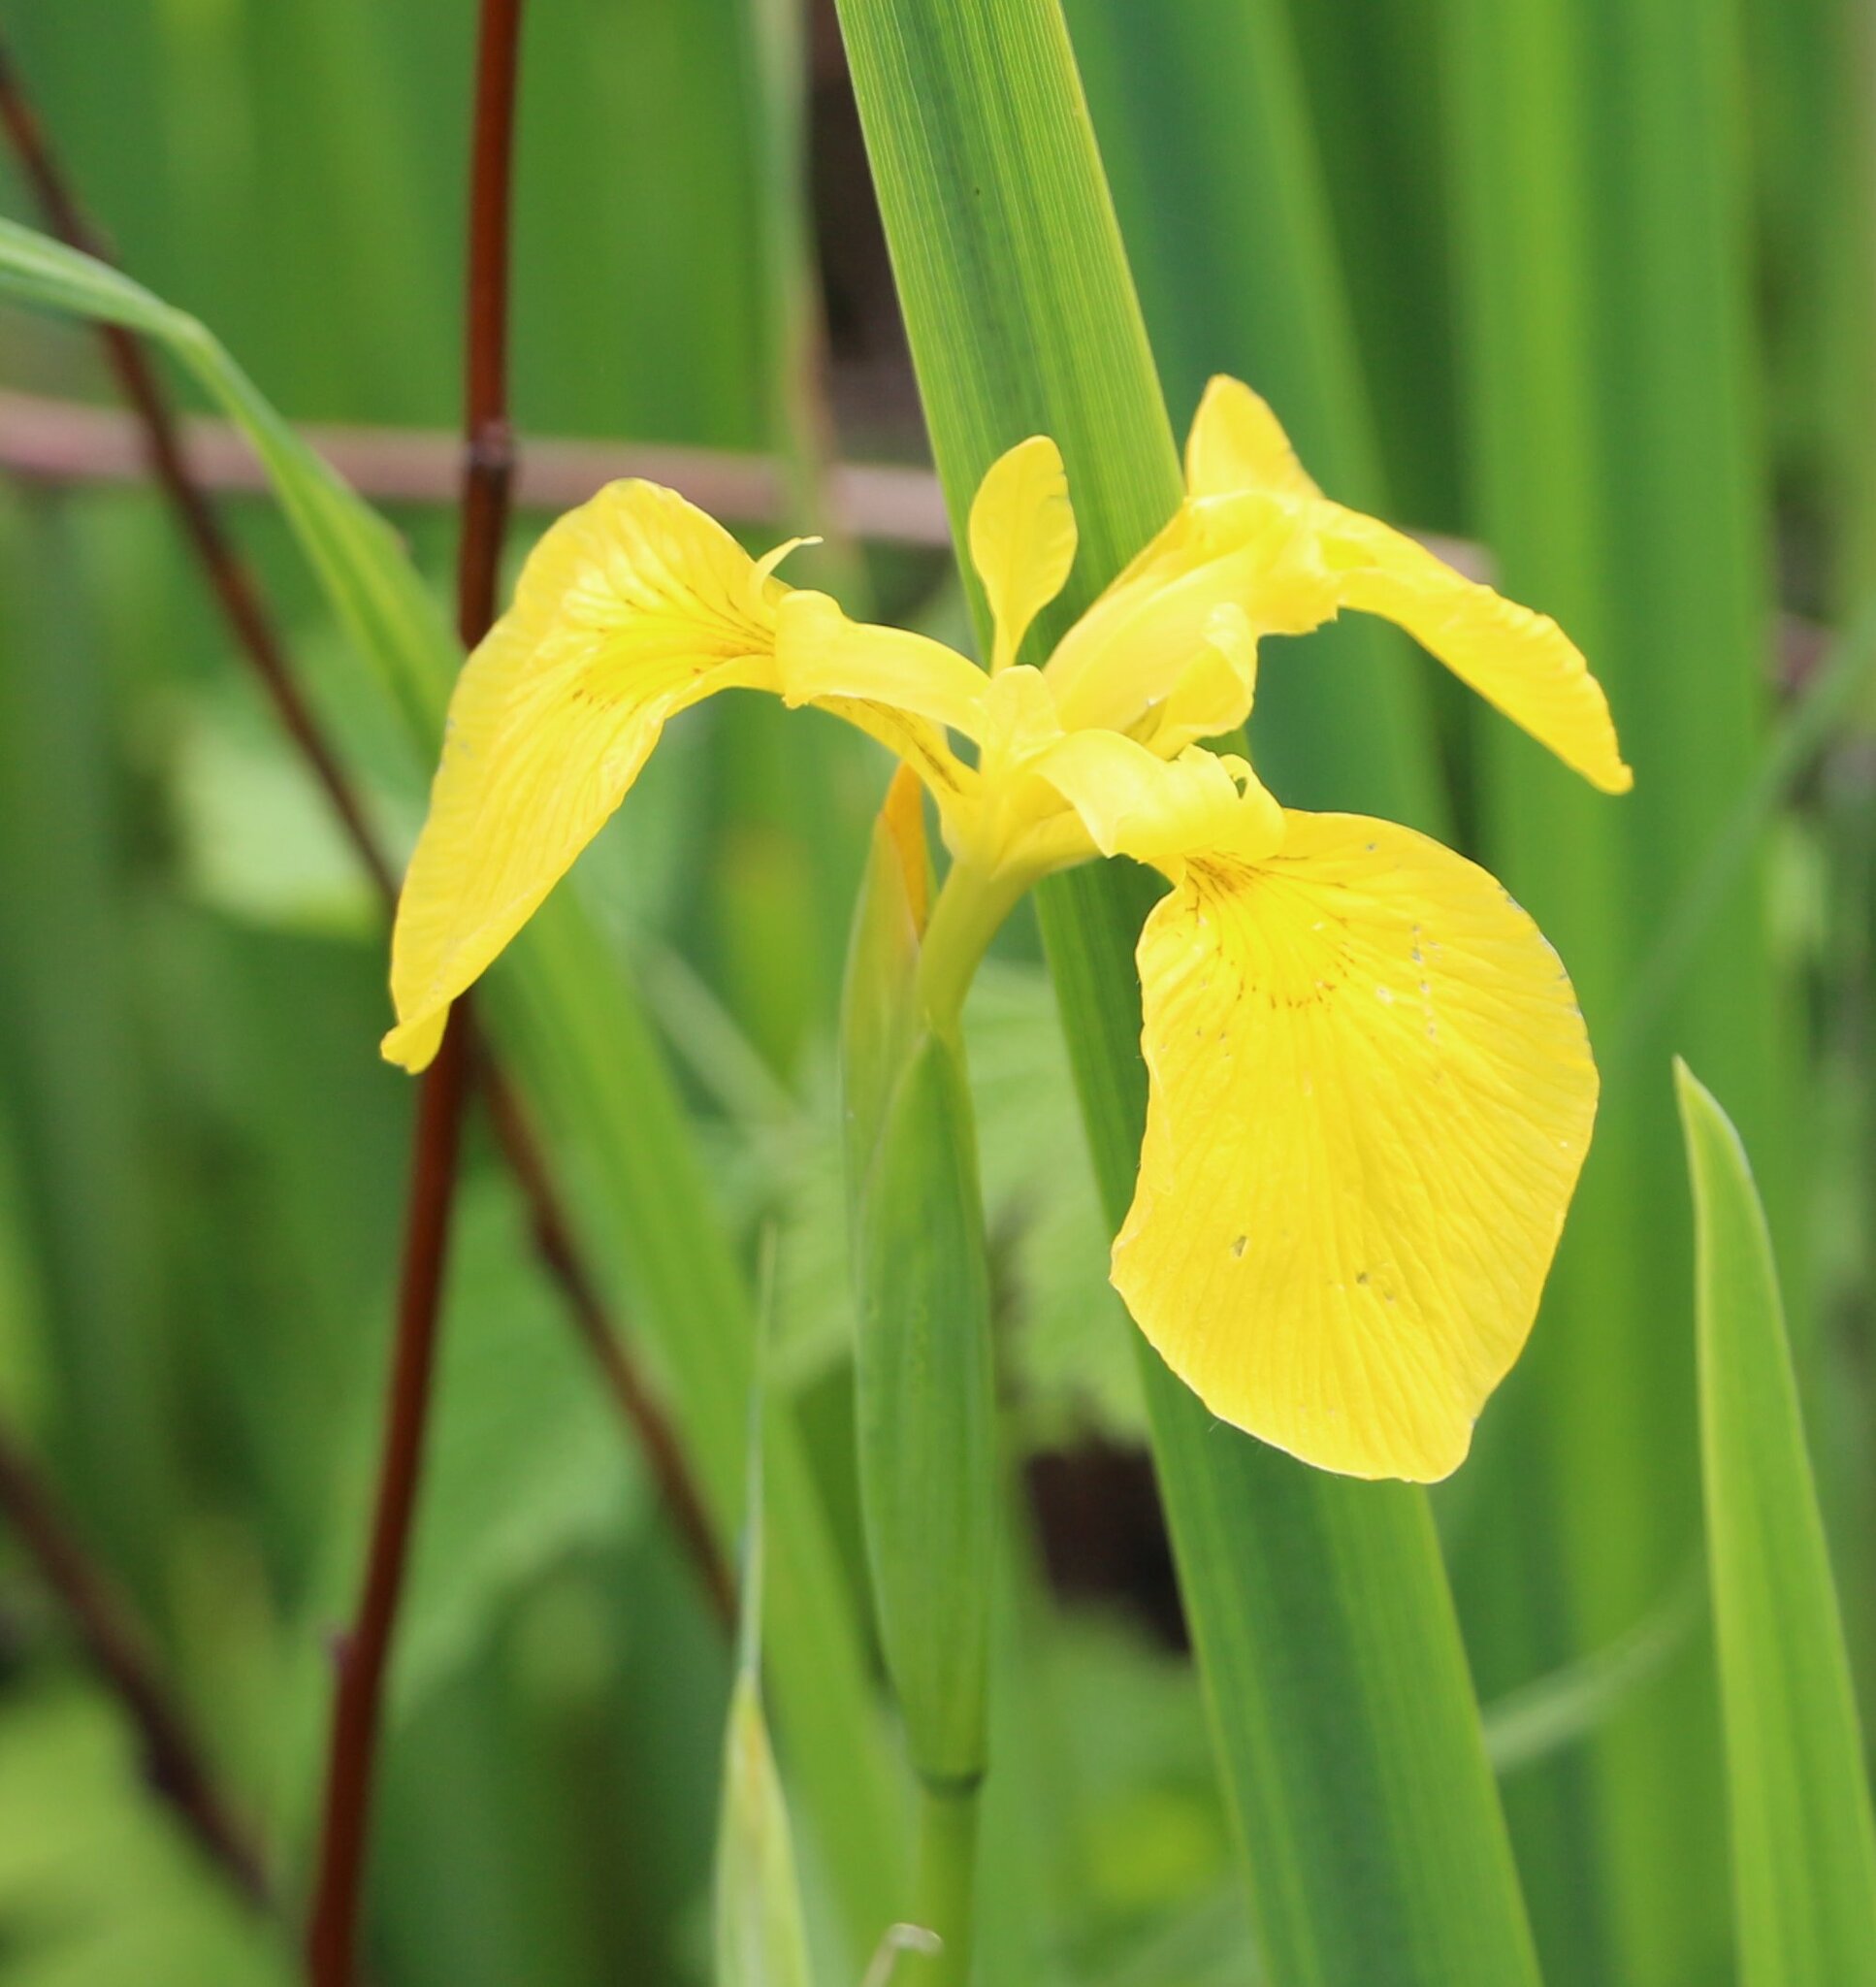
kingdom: Plantae
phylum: Tracheophyta
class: Liliopsida
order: Asparagales
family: Iridaceae
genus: Iris
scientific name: Iris pseudacorus
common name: Yellow flag
